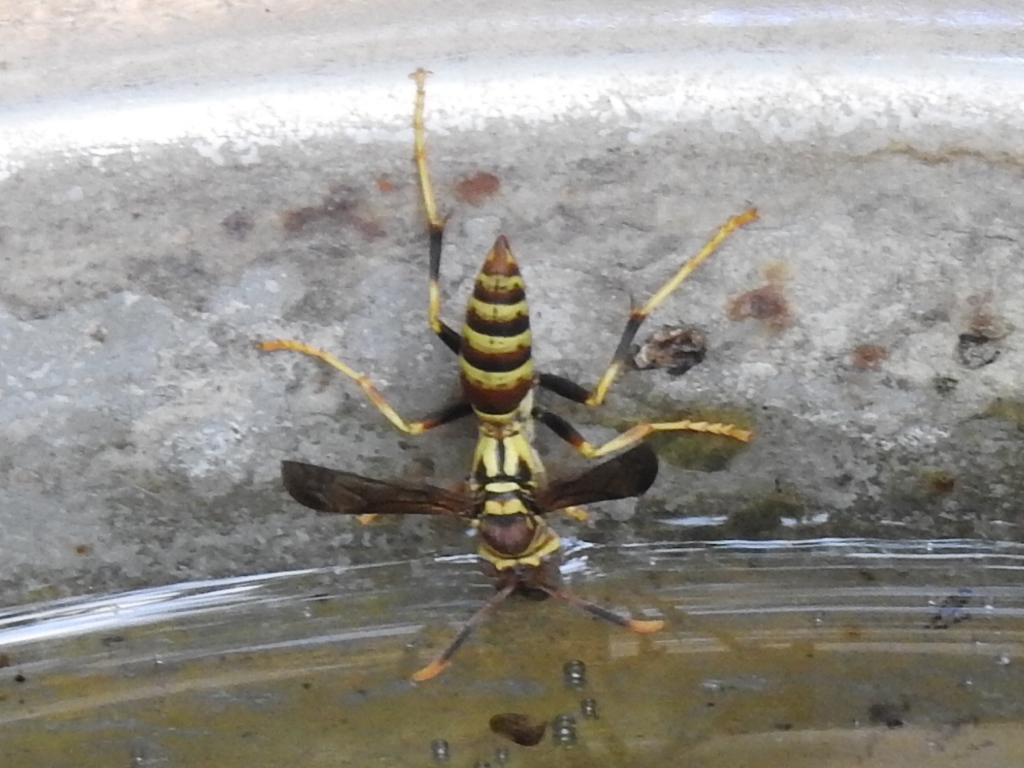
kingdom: Animalia
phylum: Arthropoda
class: Insecta
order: Hymenoptera
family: Eumenidae
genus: Polistes
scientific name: Polistes exclamans
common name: Paper wasp
